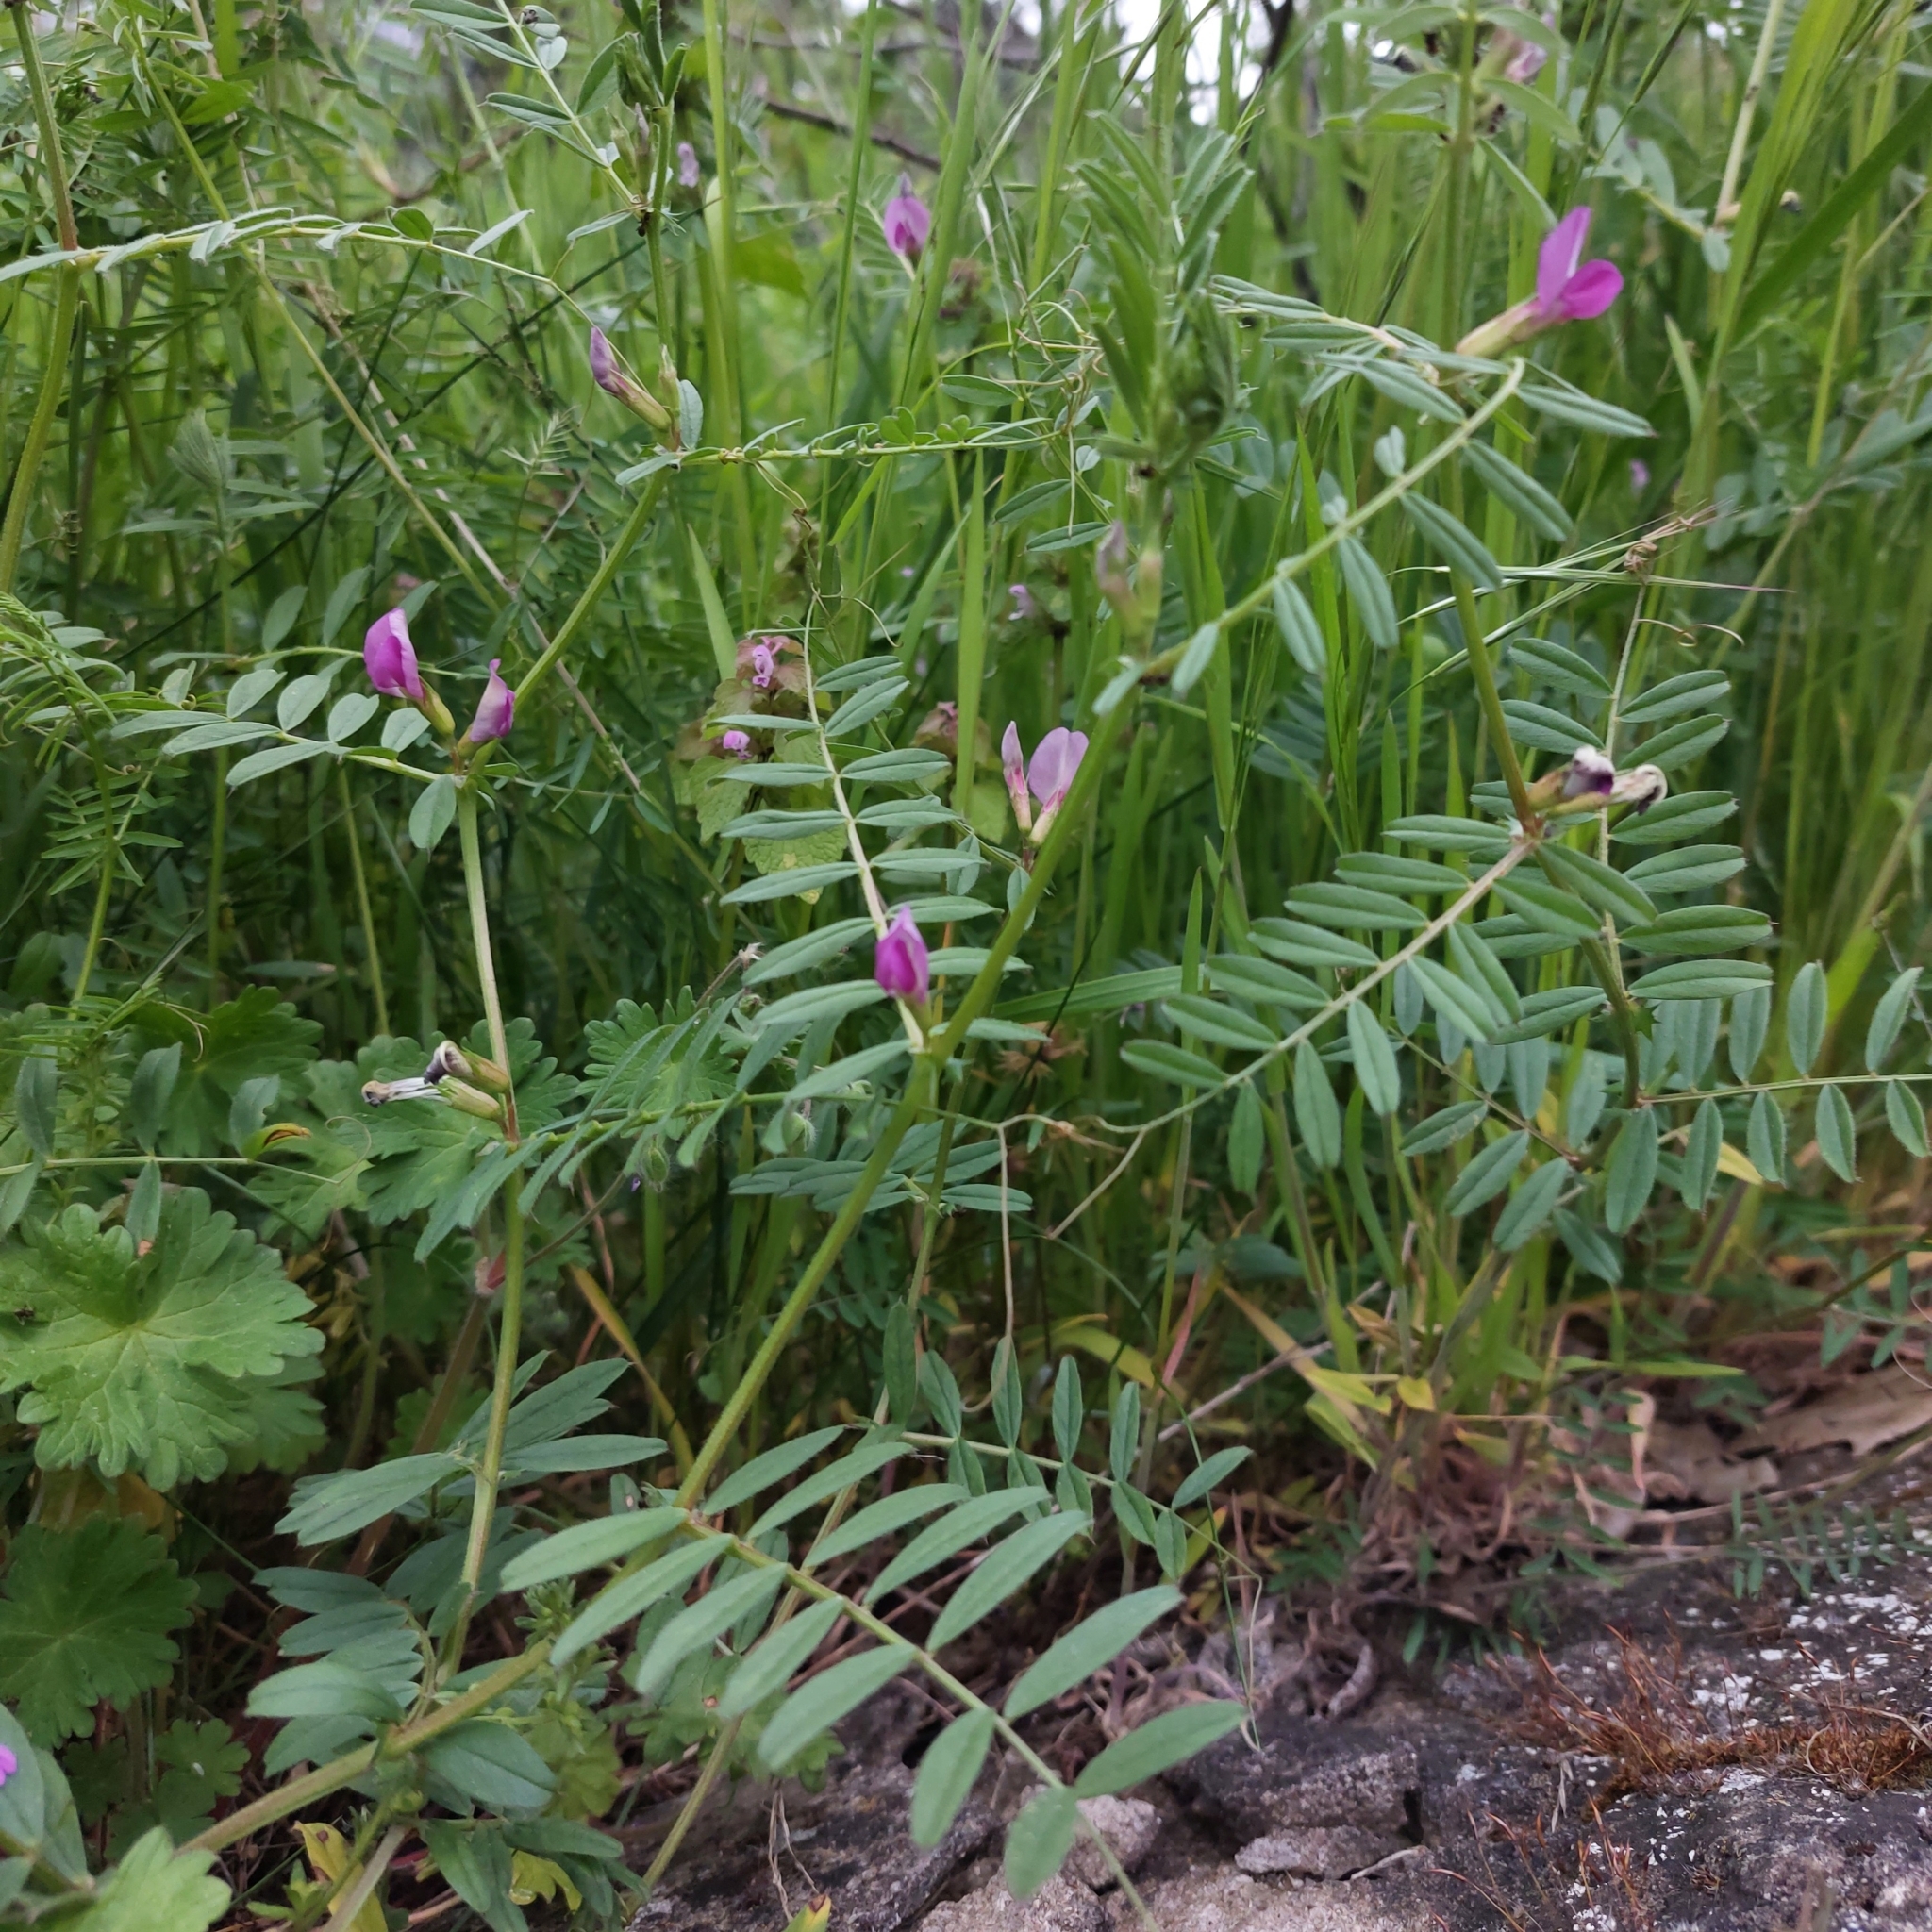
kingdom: Plantae
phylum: Tracheophyta
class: Magnoliopsida
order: Fabales
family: Fabaceae
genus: Vicia
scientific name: Vicia sativa
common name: Garden vetch
